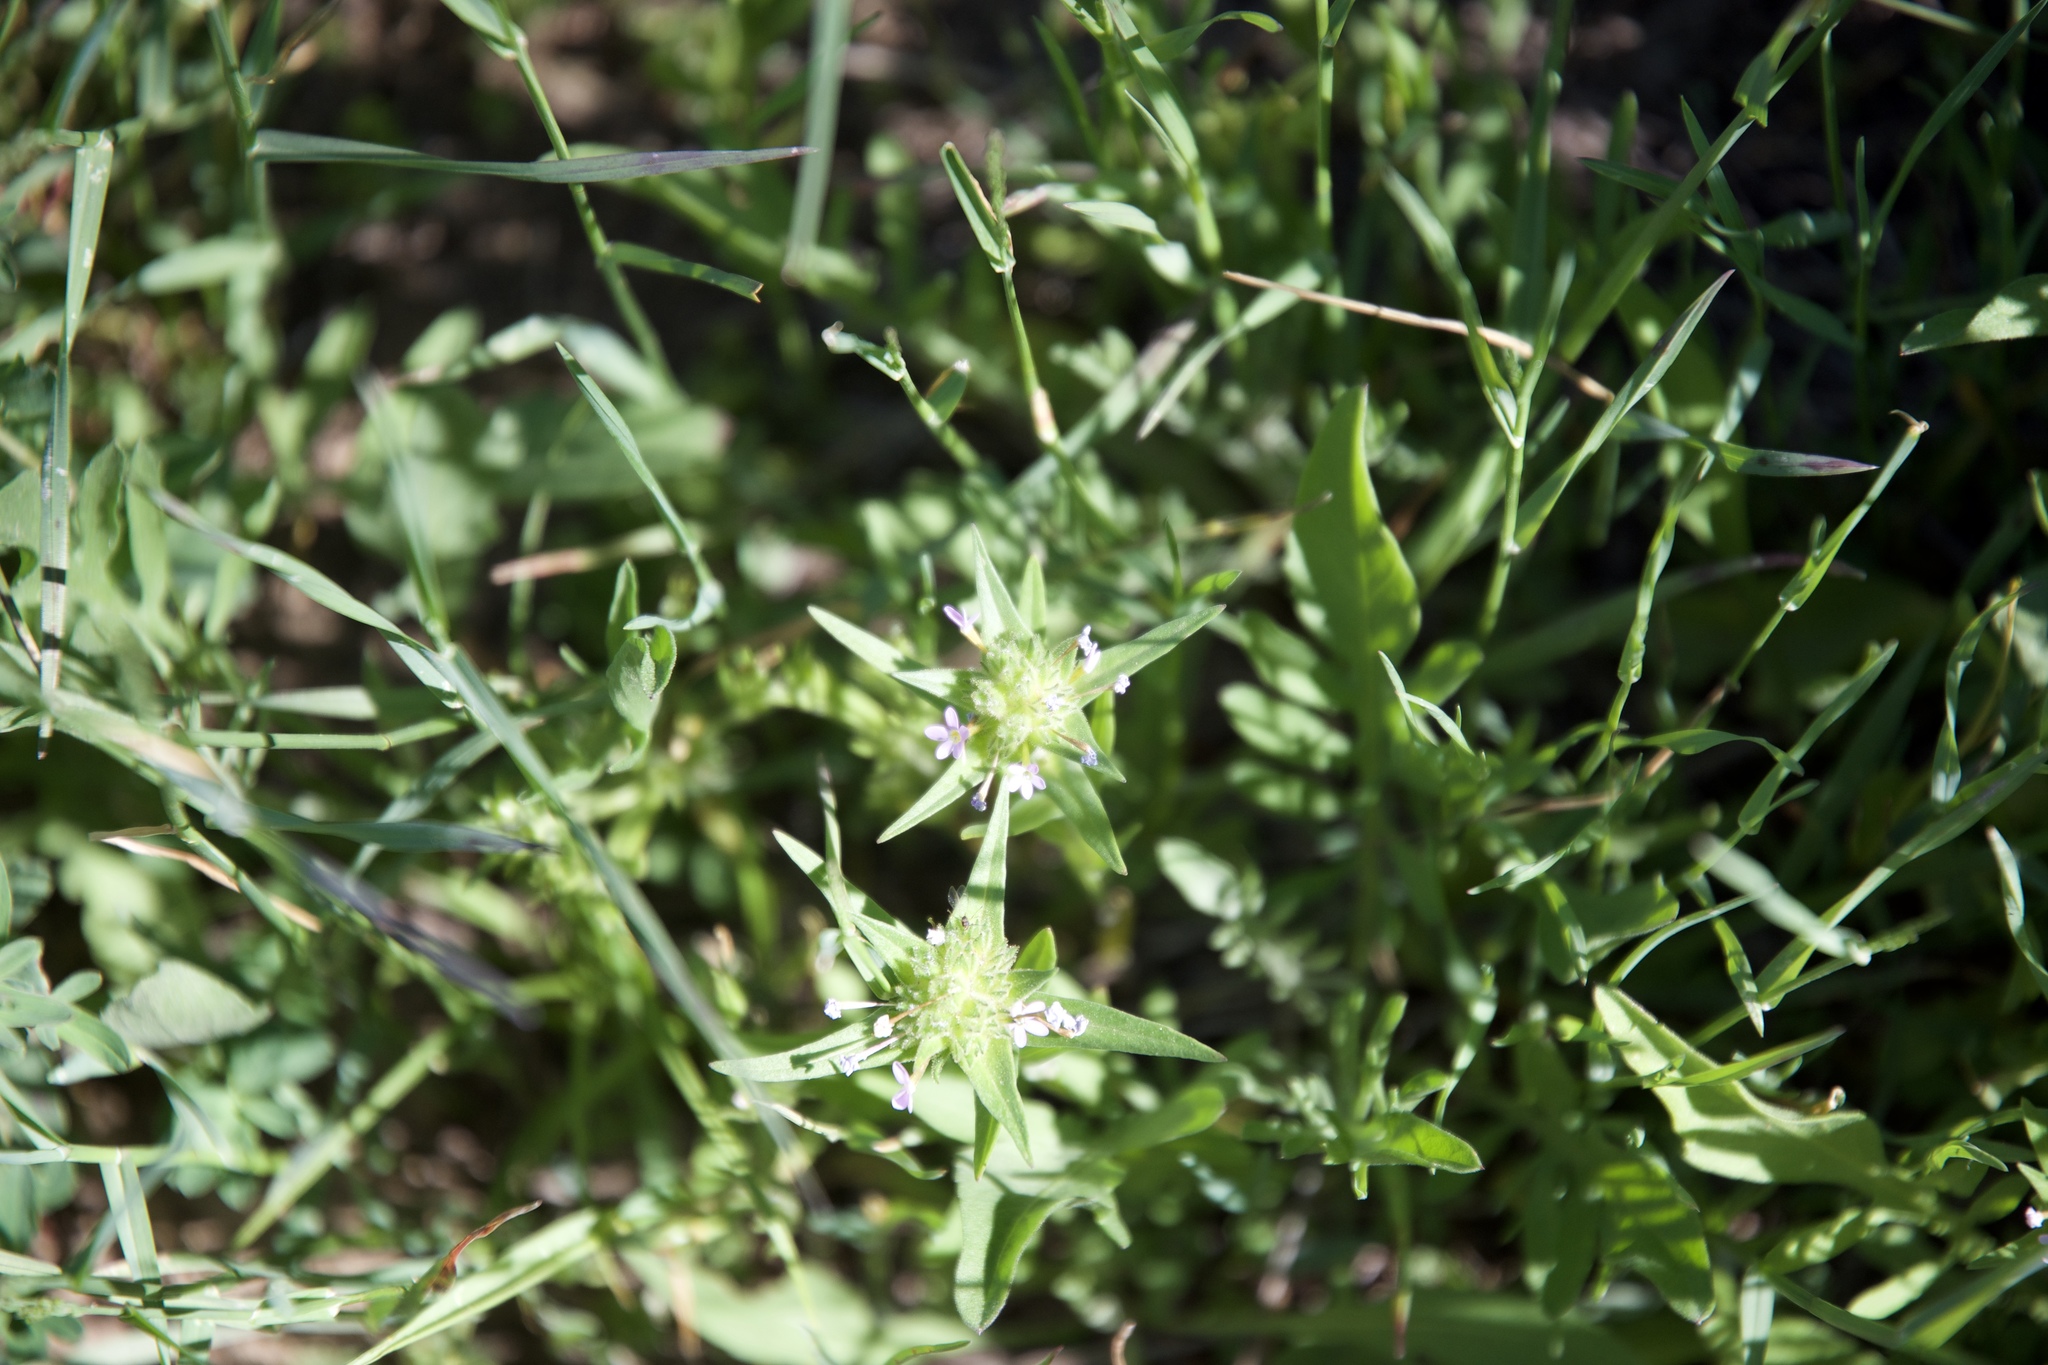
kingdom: Plantae
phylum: Tracheophyta
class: Magnoliopsida
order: Ericales
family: Polemoniaceae
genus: Collomia
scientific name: Collomia linearis
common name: Tiny trumpet
